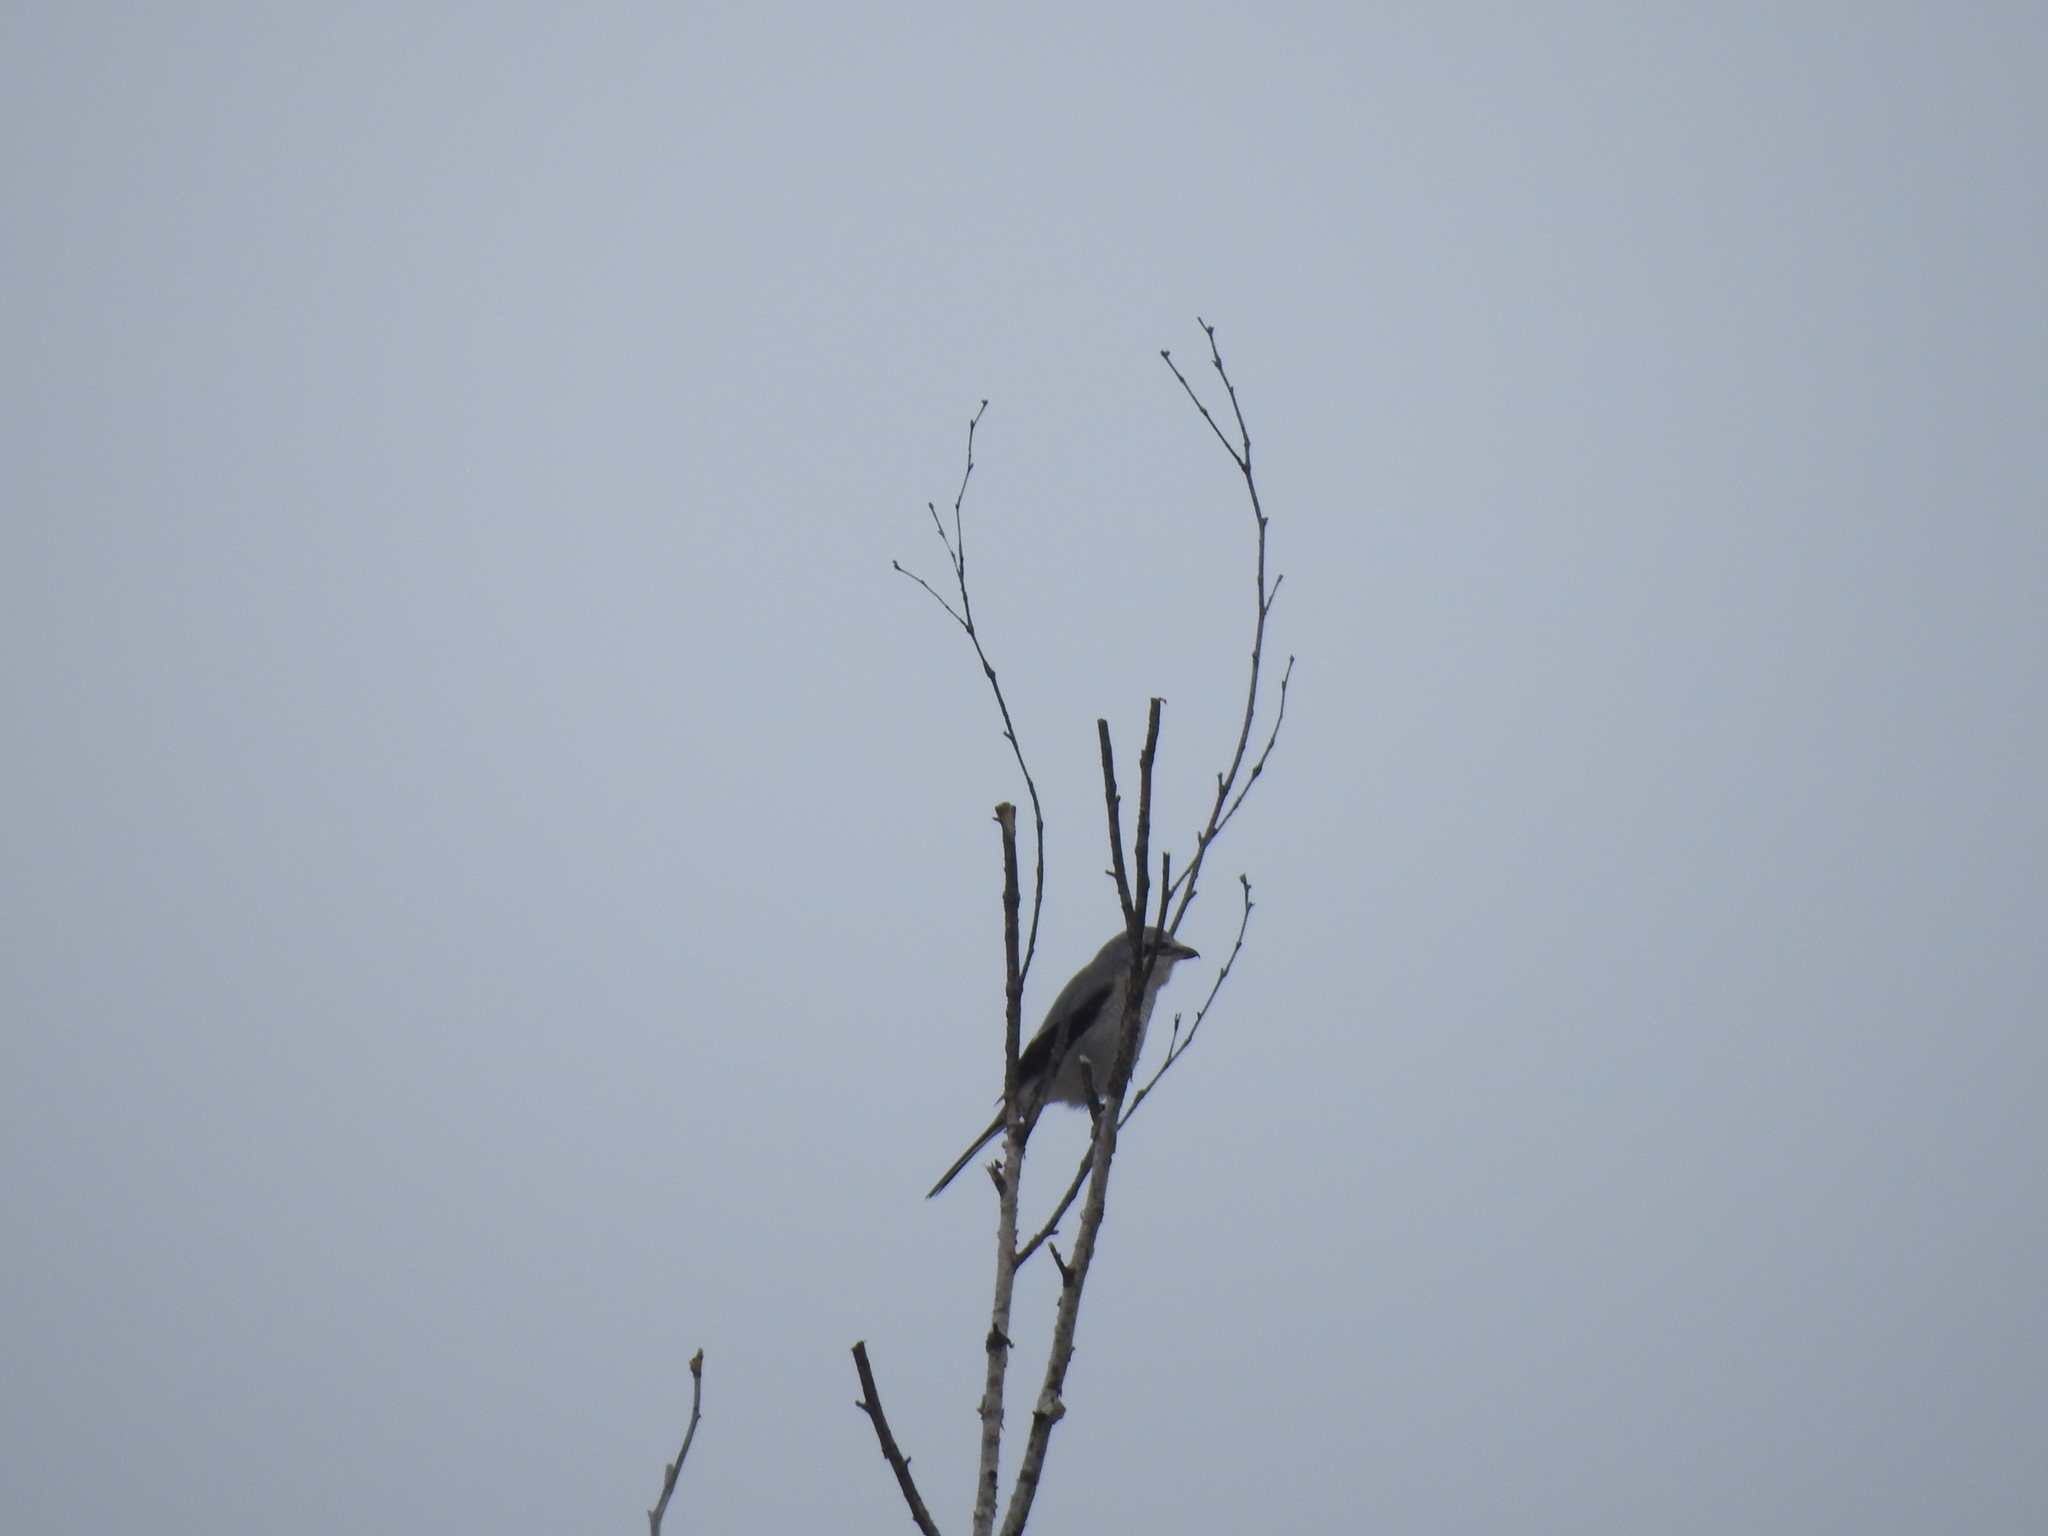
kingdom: Animalia
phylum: Chordata
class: Aves
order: Passeriformes
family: Laniidae
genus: Lanius
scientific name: Lanius borealis
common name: Northern shrike
